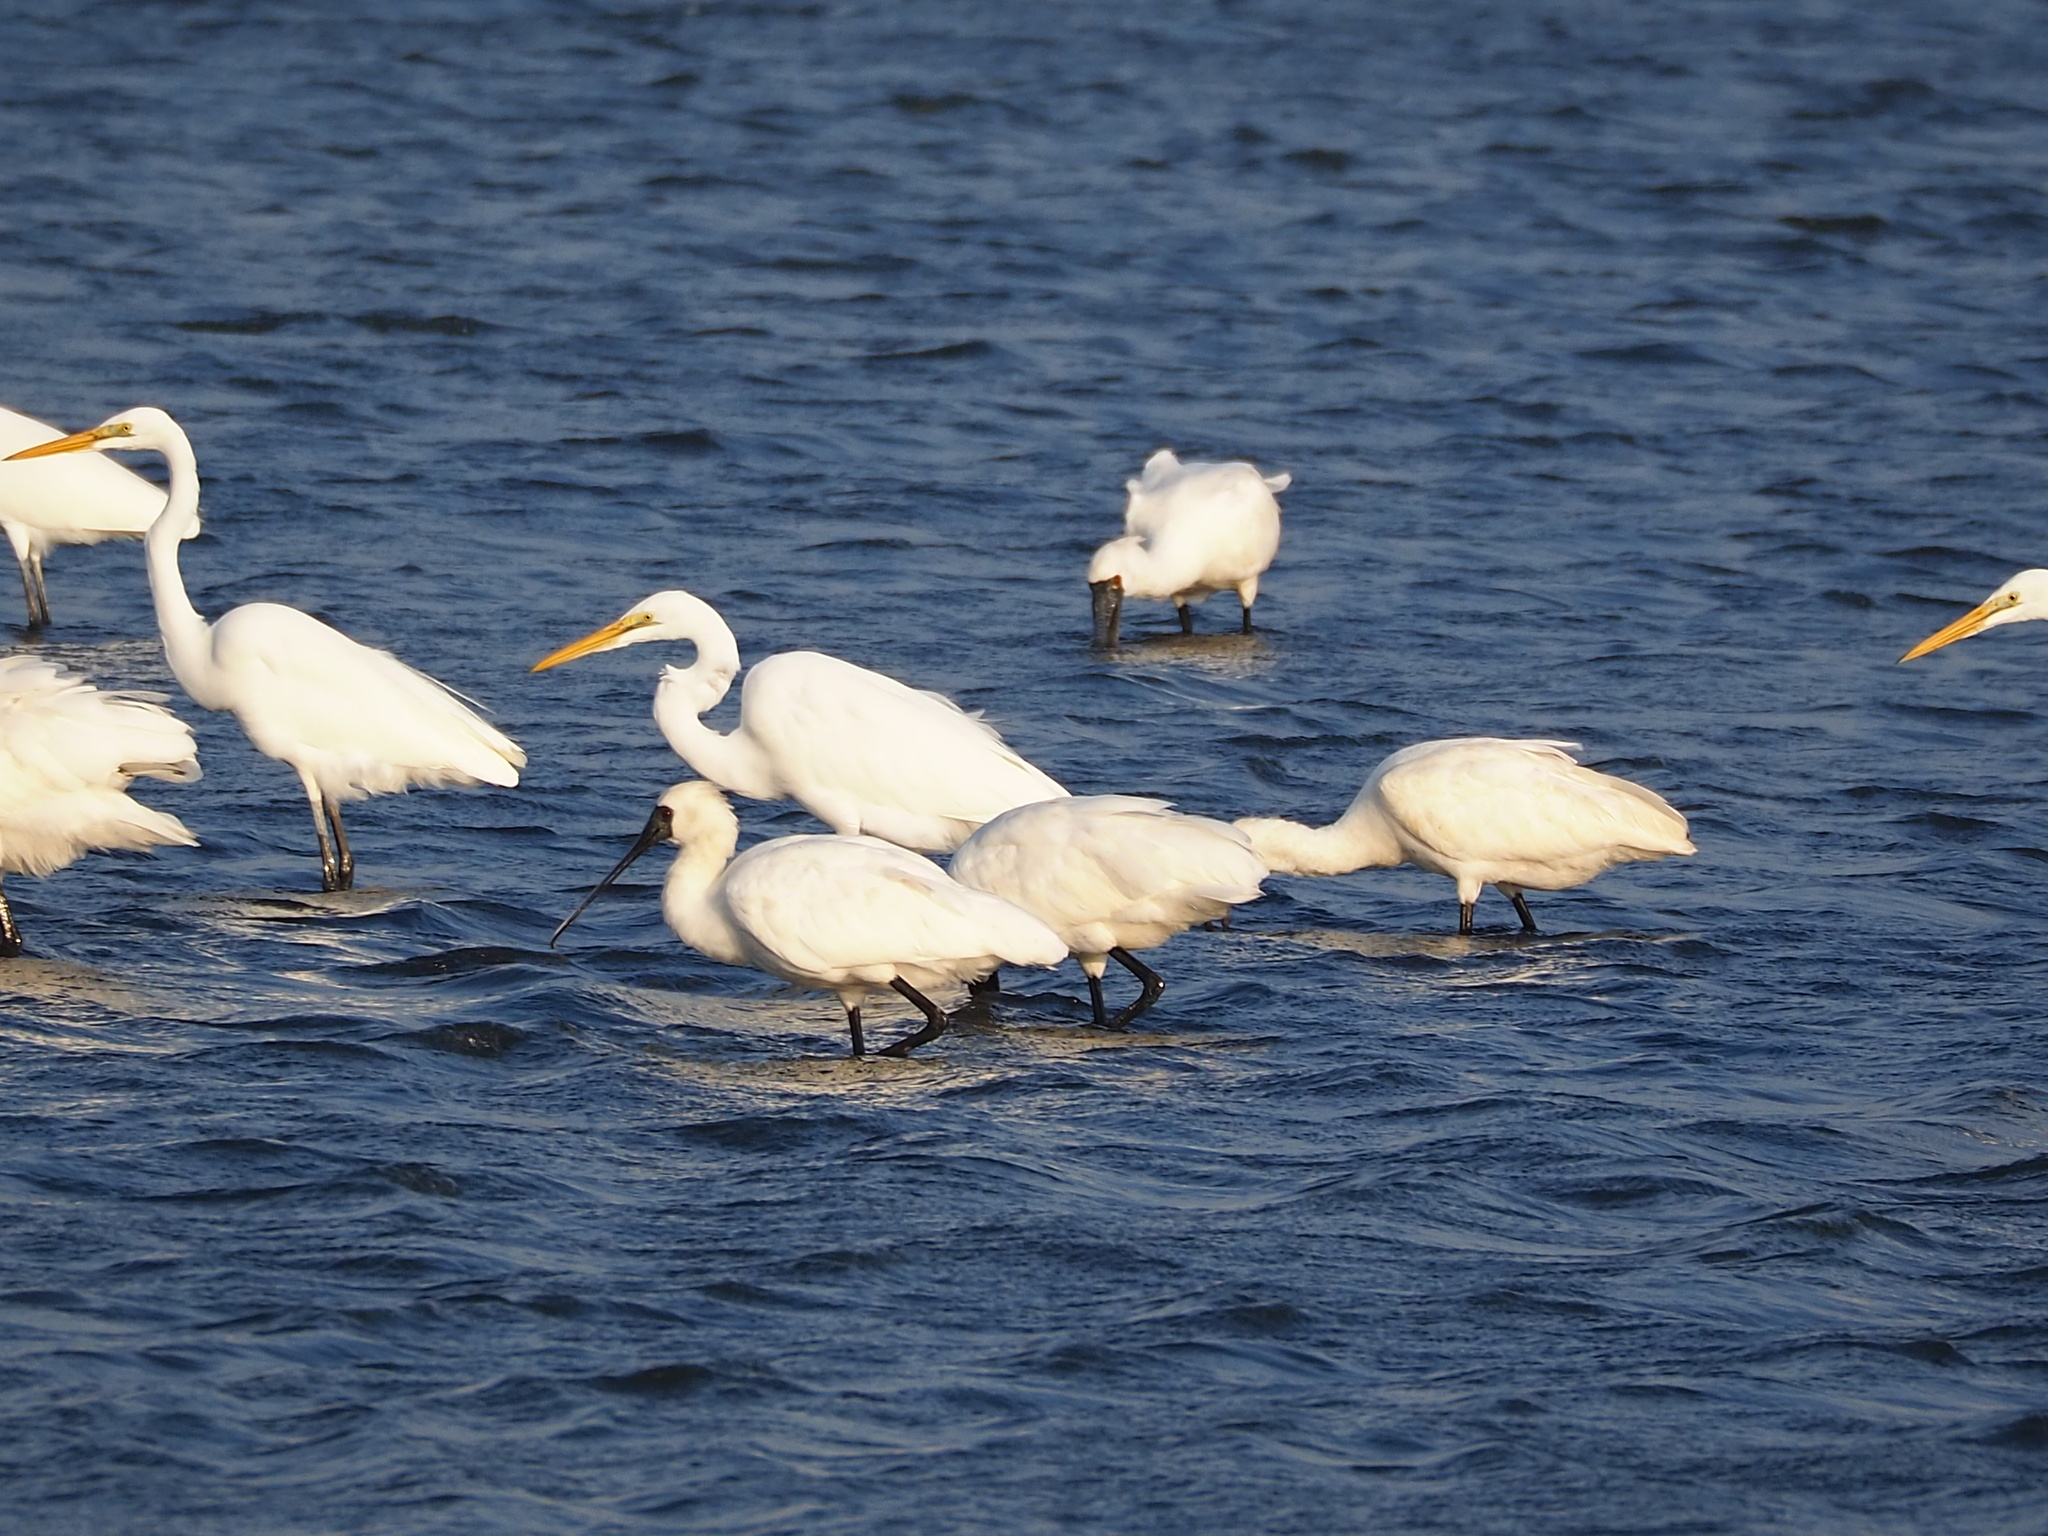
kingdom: Animalia
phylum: Chordata
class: Aves
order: Pelecaniformes
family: Threskiornithidae
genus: Platalea
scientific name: Platalea minor
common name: Black-faced spoonbill
